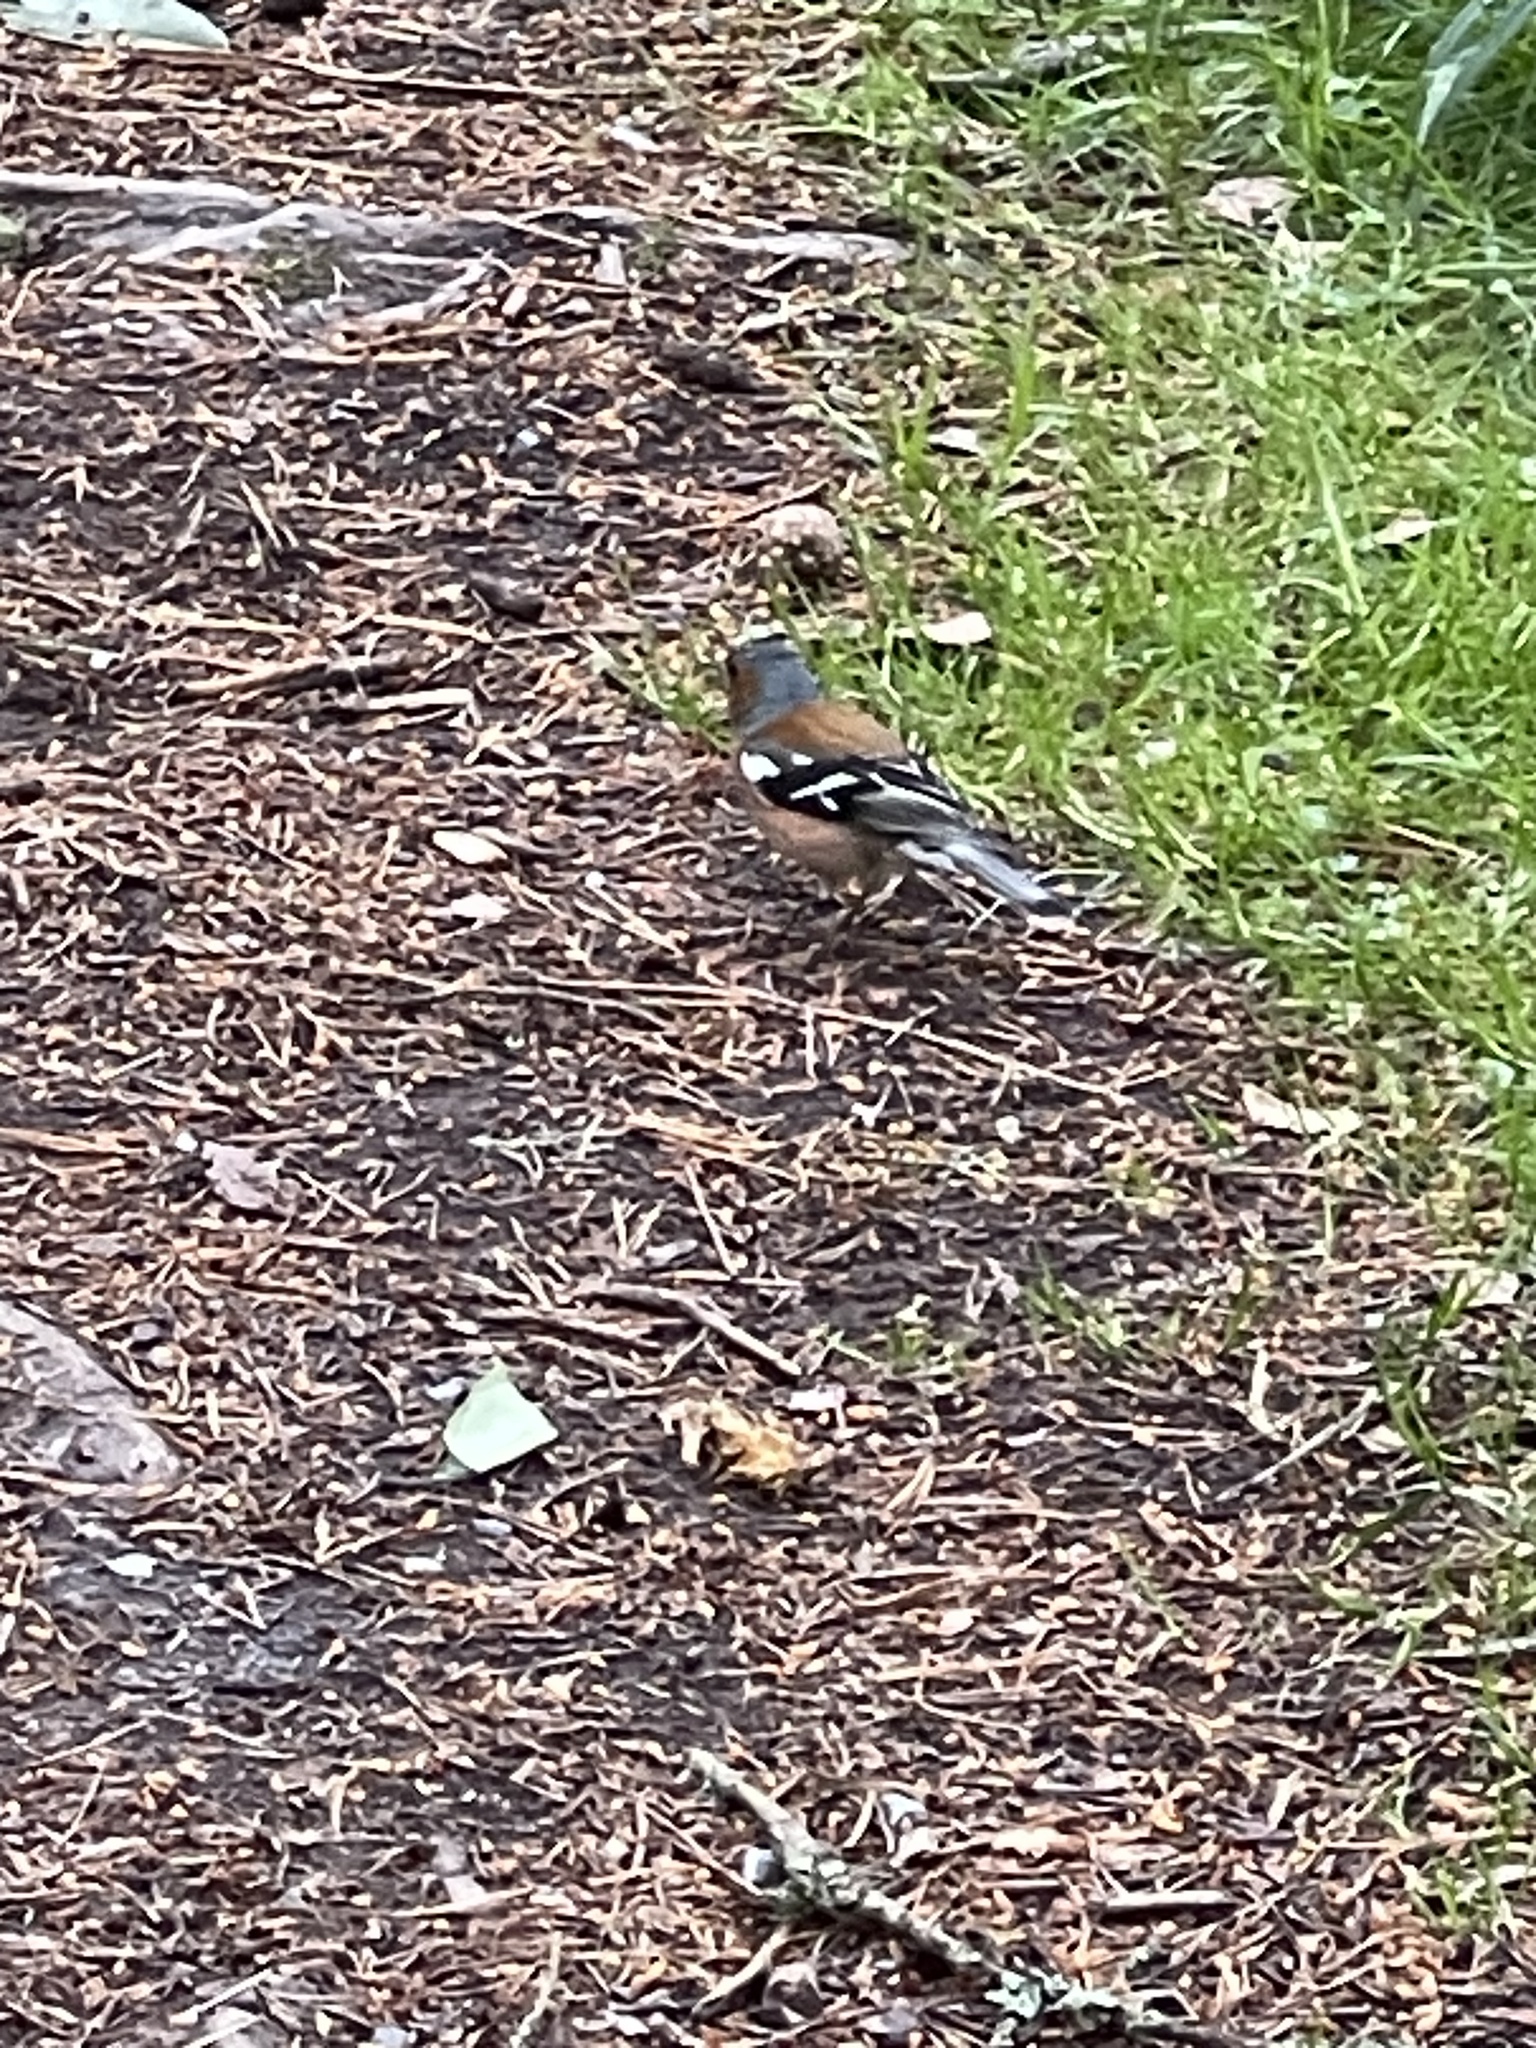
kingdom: Animalia
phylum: Chordata
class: Aves
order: Passeriformes
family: Fringillidae
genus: Fringilla
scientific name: Fringilla coelebs
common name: Common chaffinch
